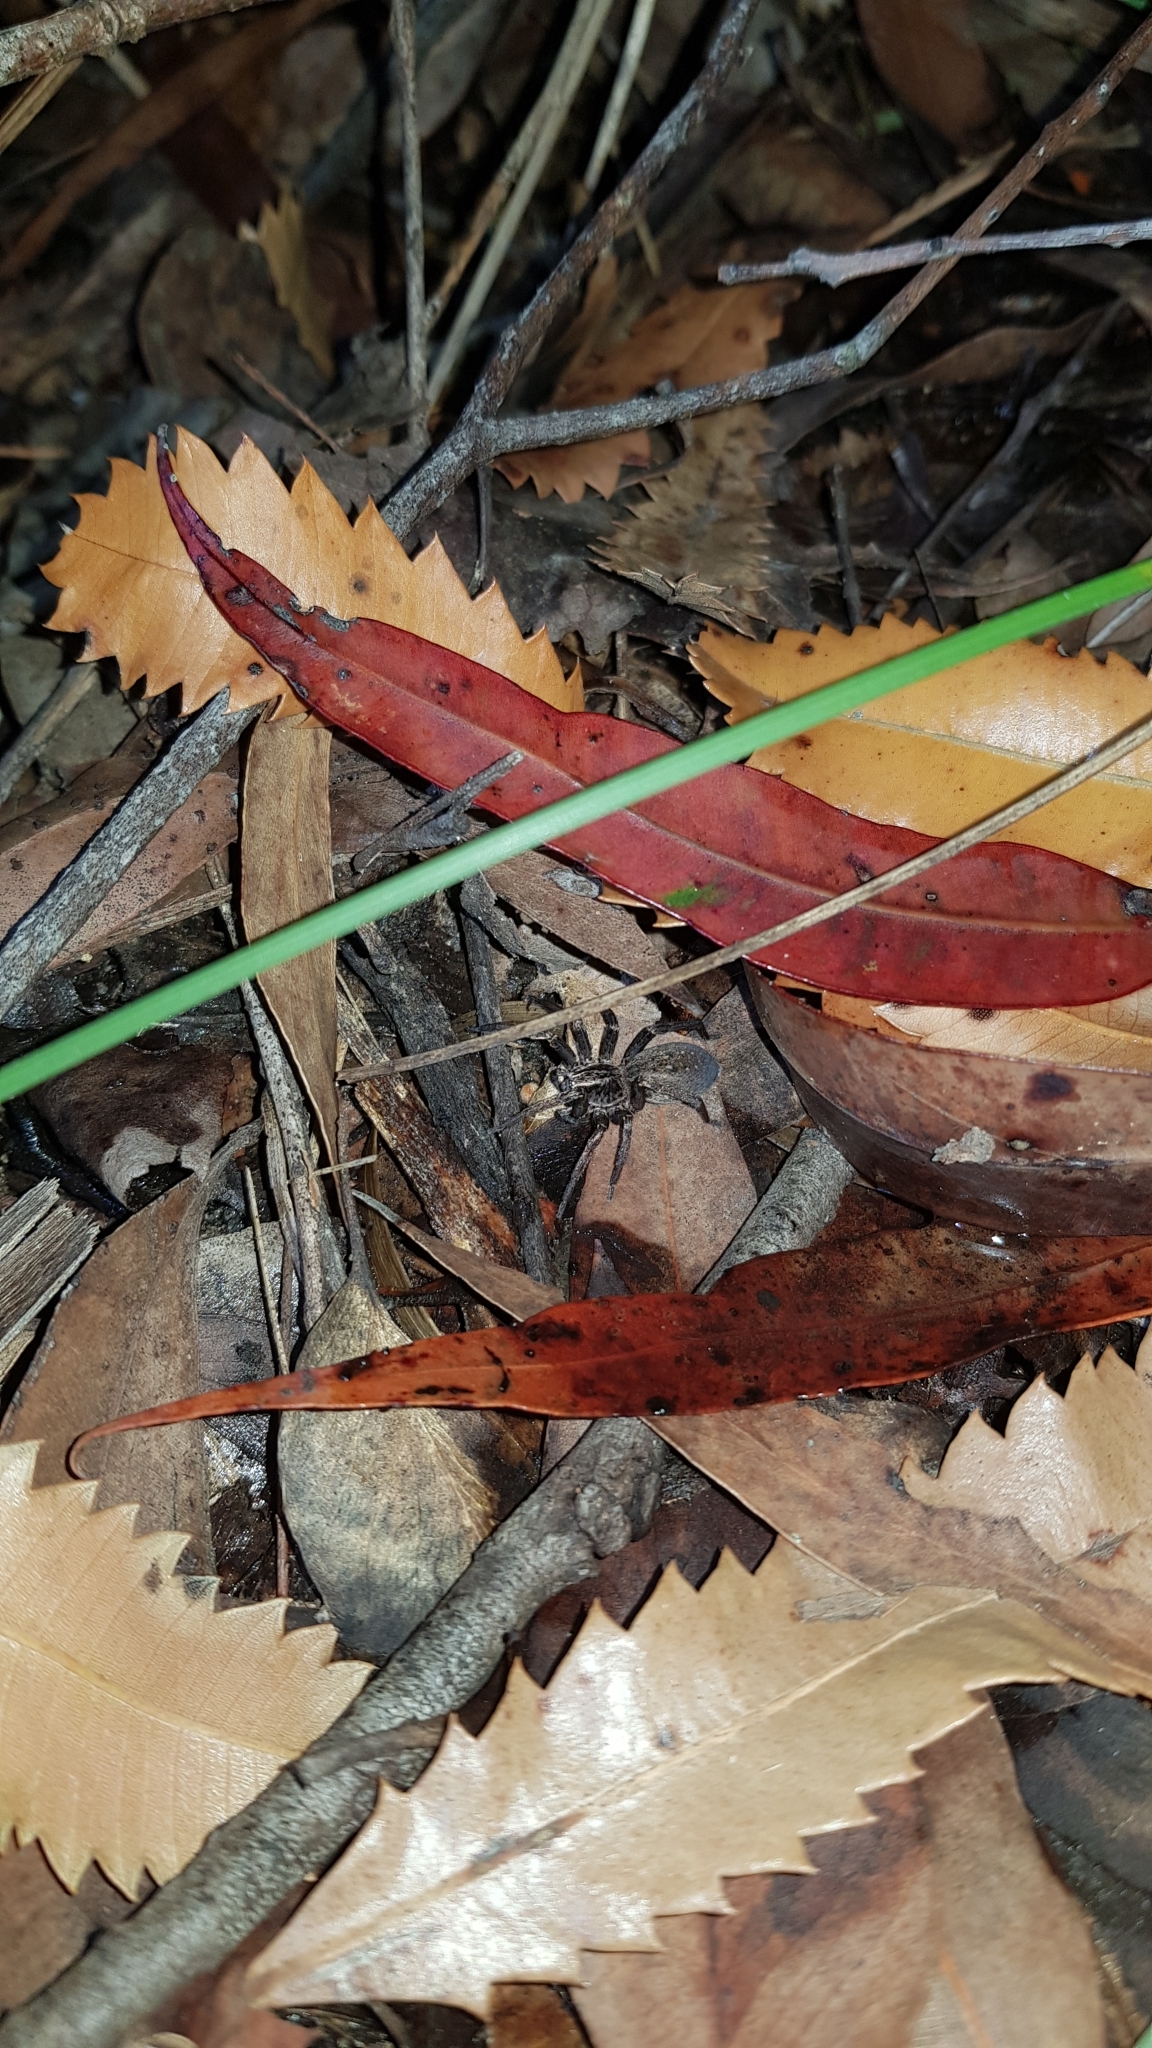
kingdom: Animalia
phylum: Arthropoda
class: Arachnida
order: Araneae
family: Miturgidae
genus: Mituliodon
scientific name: Mituliodon tarantulinus
